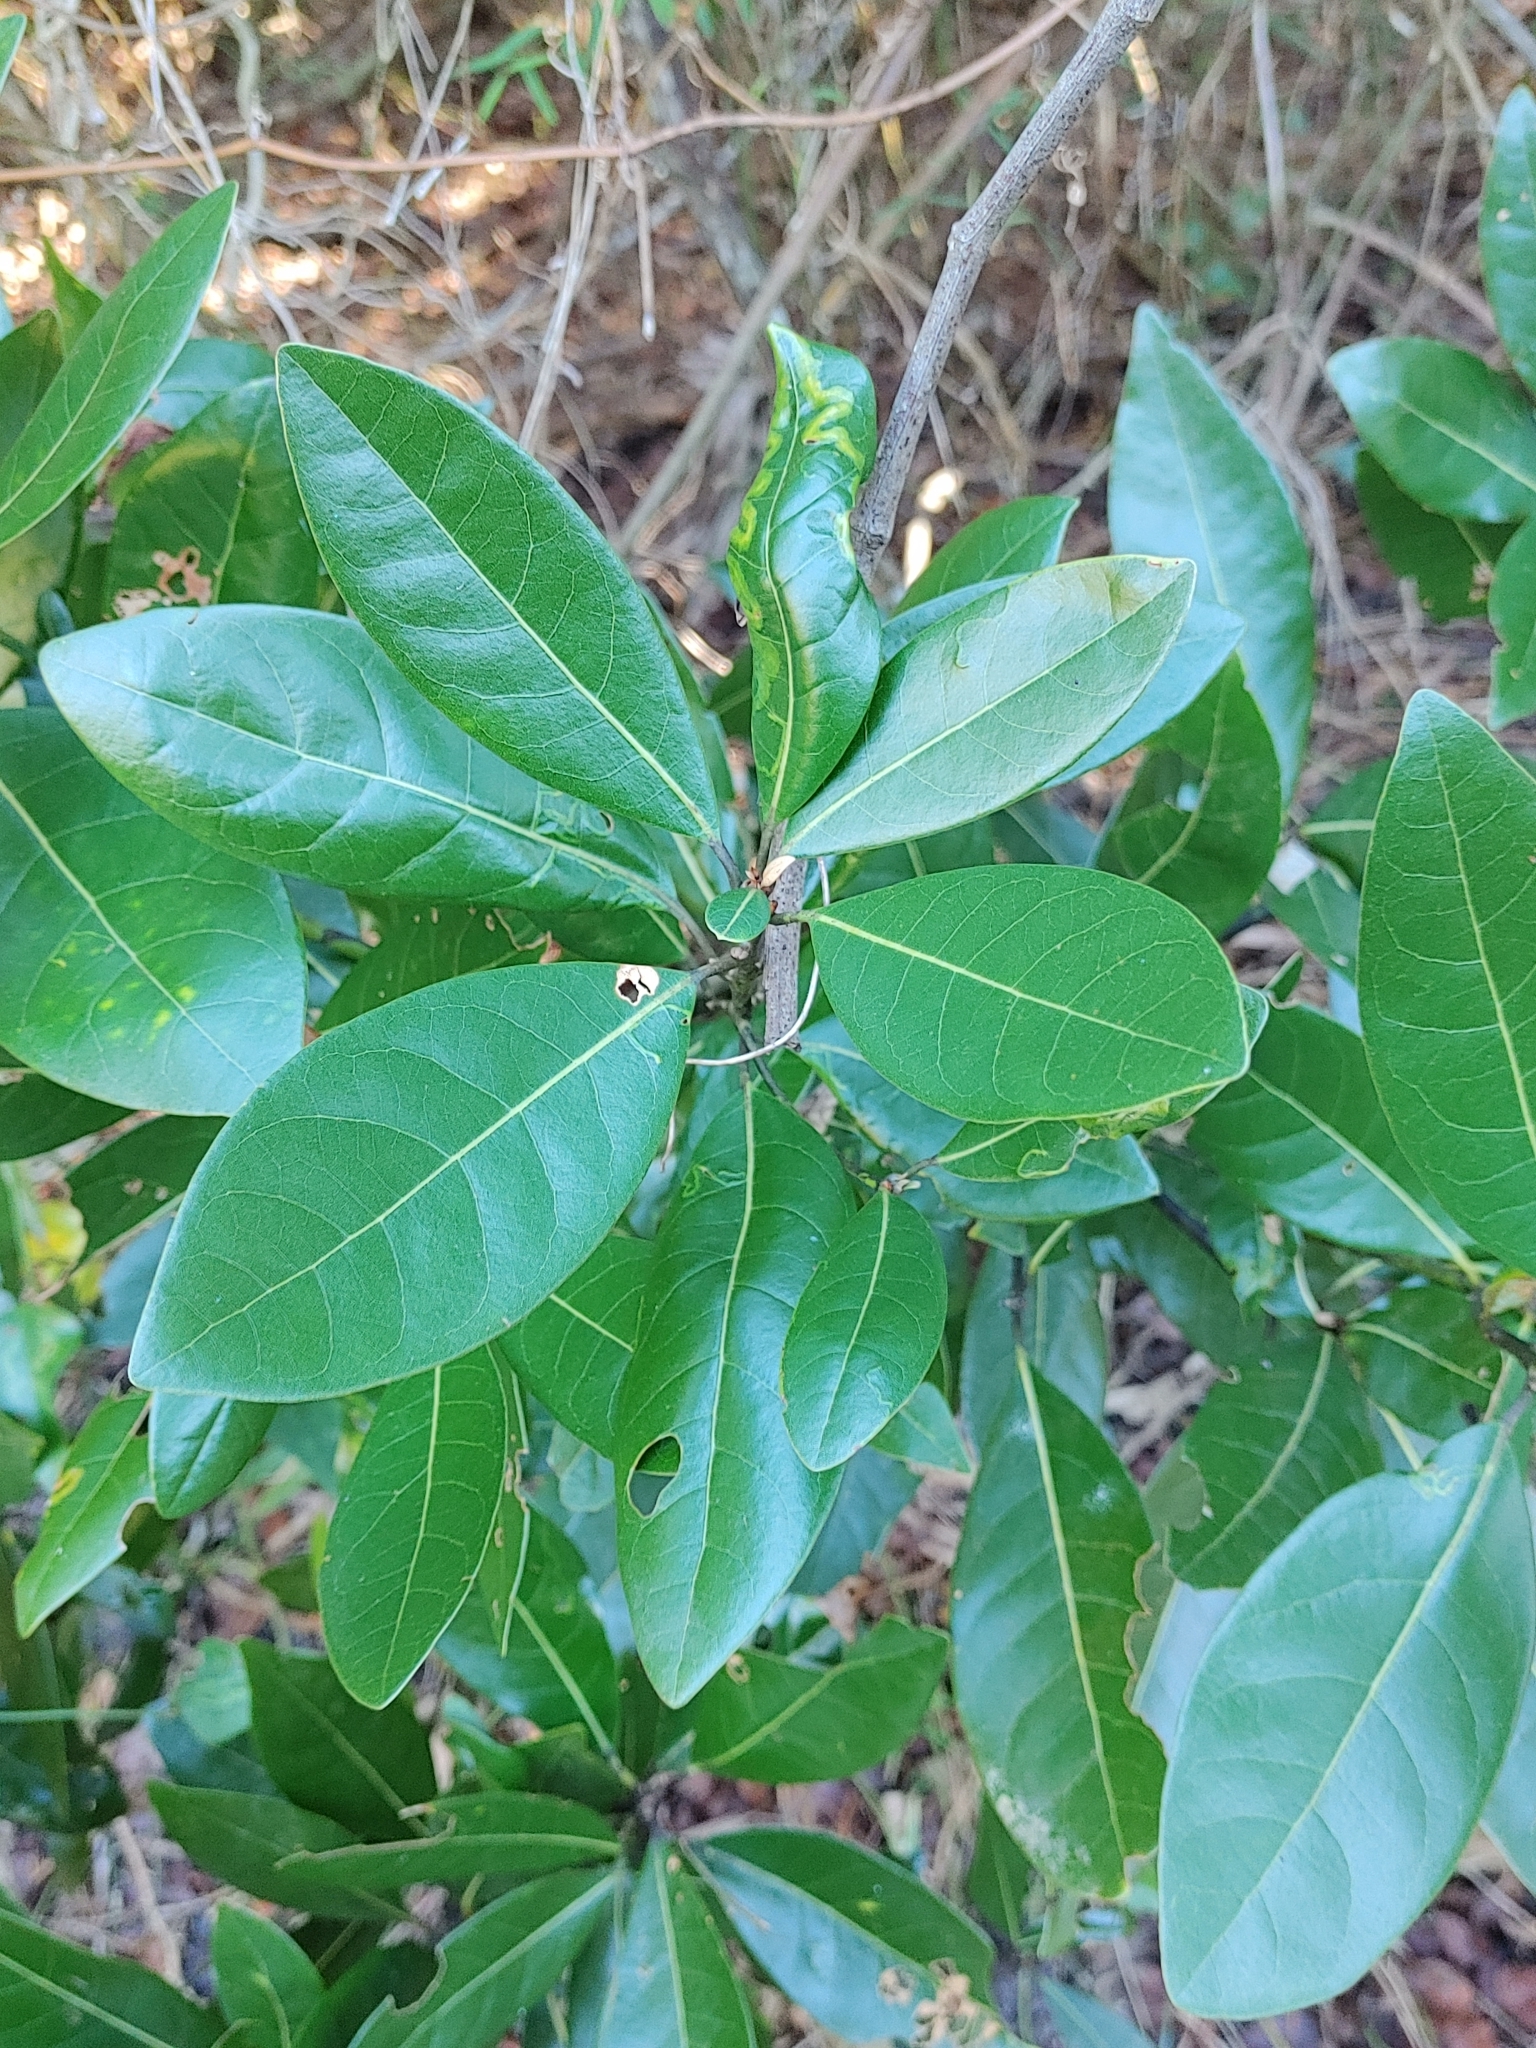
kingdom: Plantae
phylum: Tracheophyta
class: Magnoliopsida
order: Laurales
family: Lauraceae
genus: Persea
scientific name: Persea borbonia
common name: Redbay
